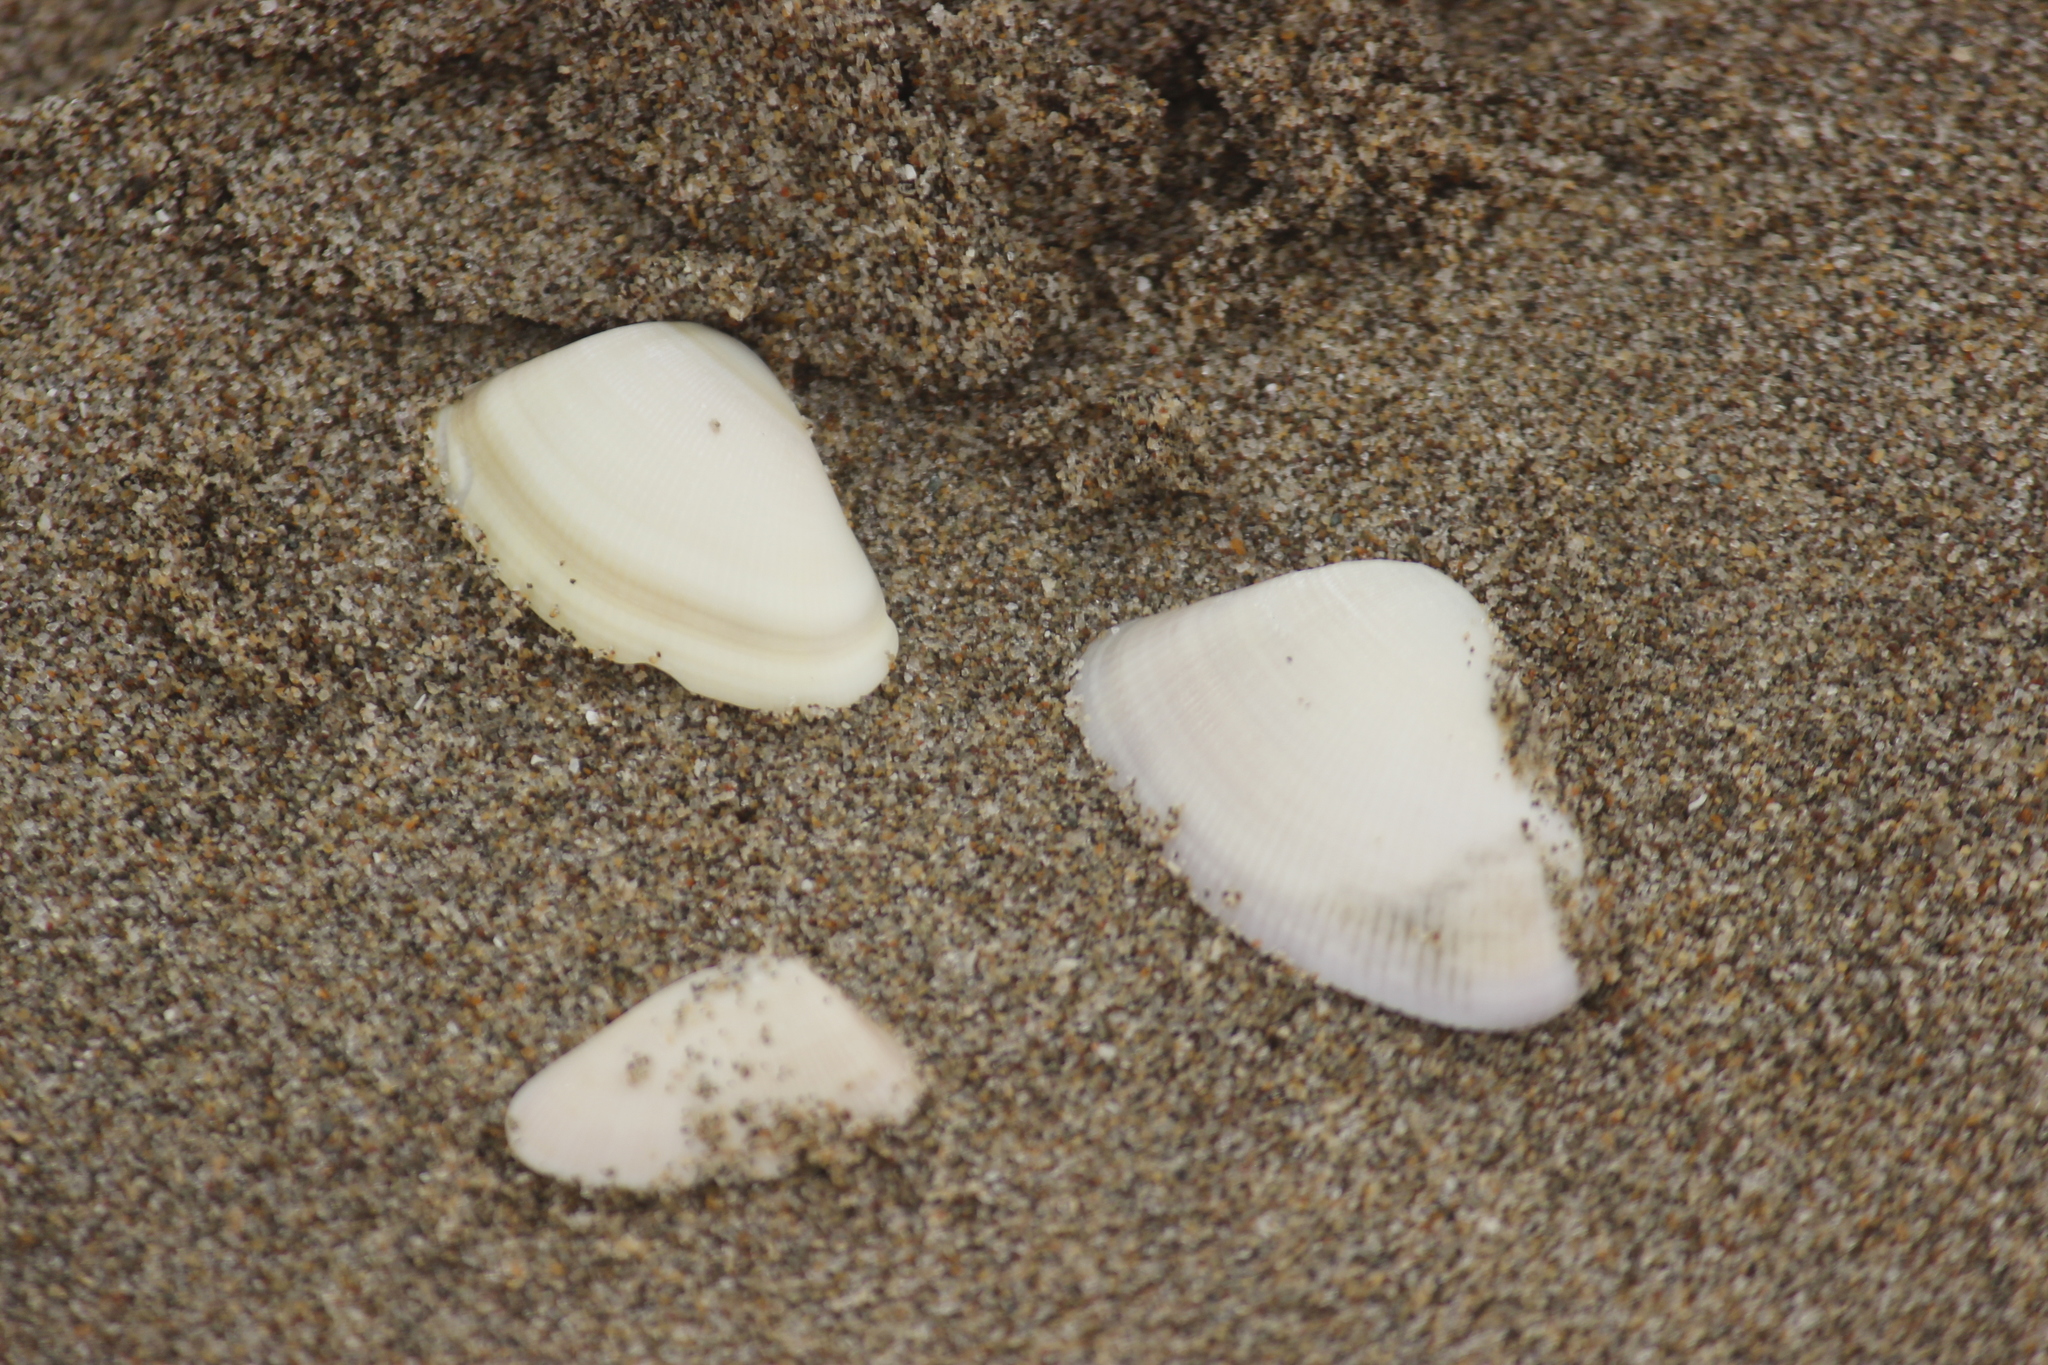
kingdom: Animalia
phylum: Mollusca
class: Bivalvia
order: Cardiida
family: Donacidae
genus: Donax
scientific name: Donax obesulus
